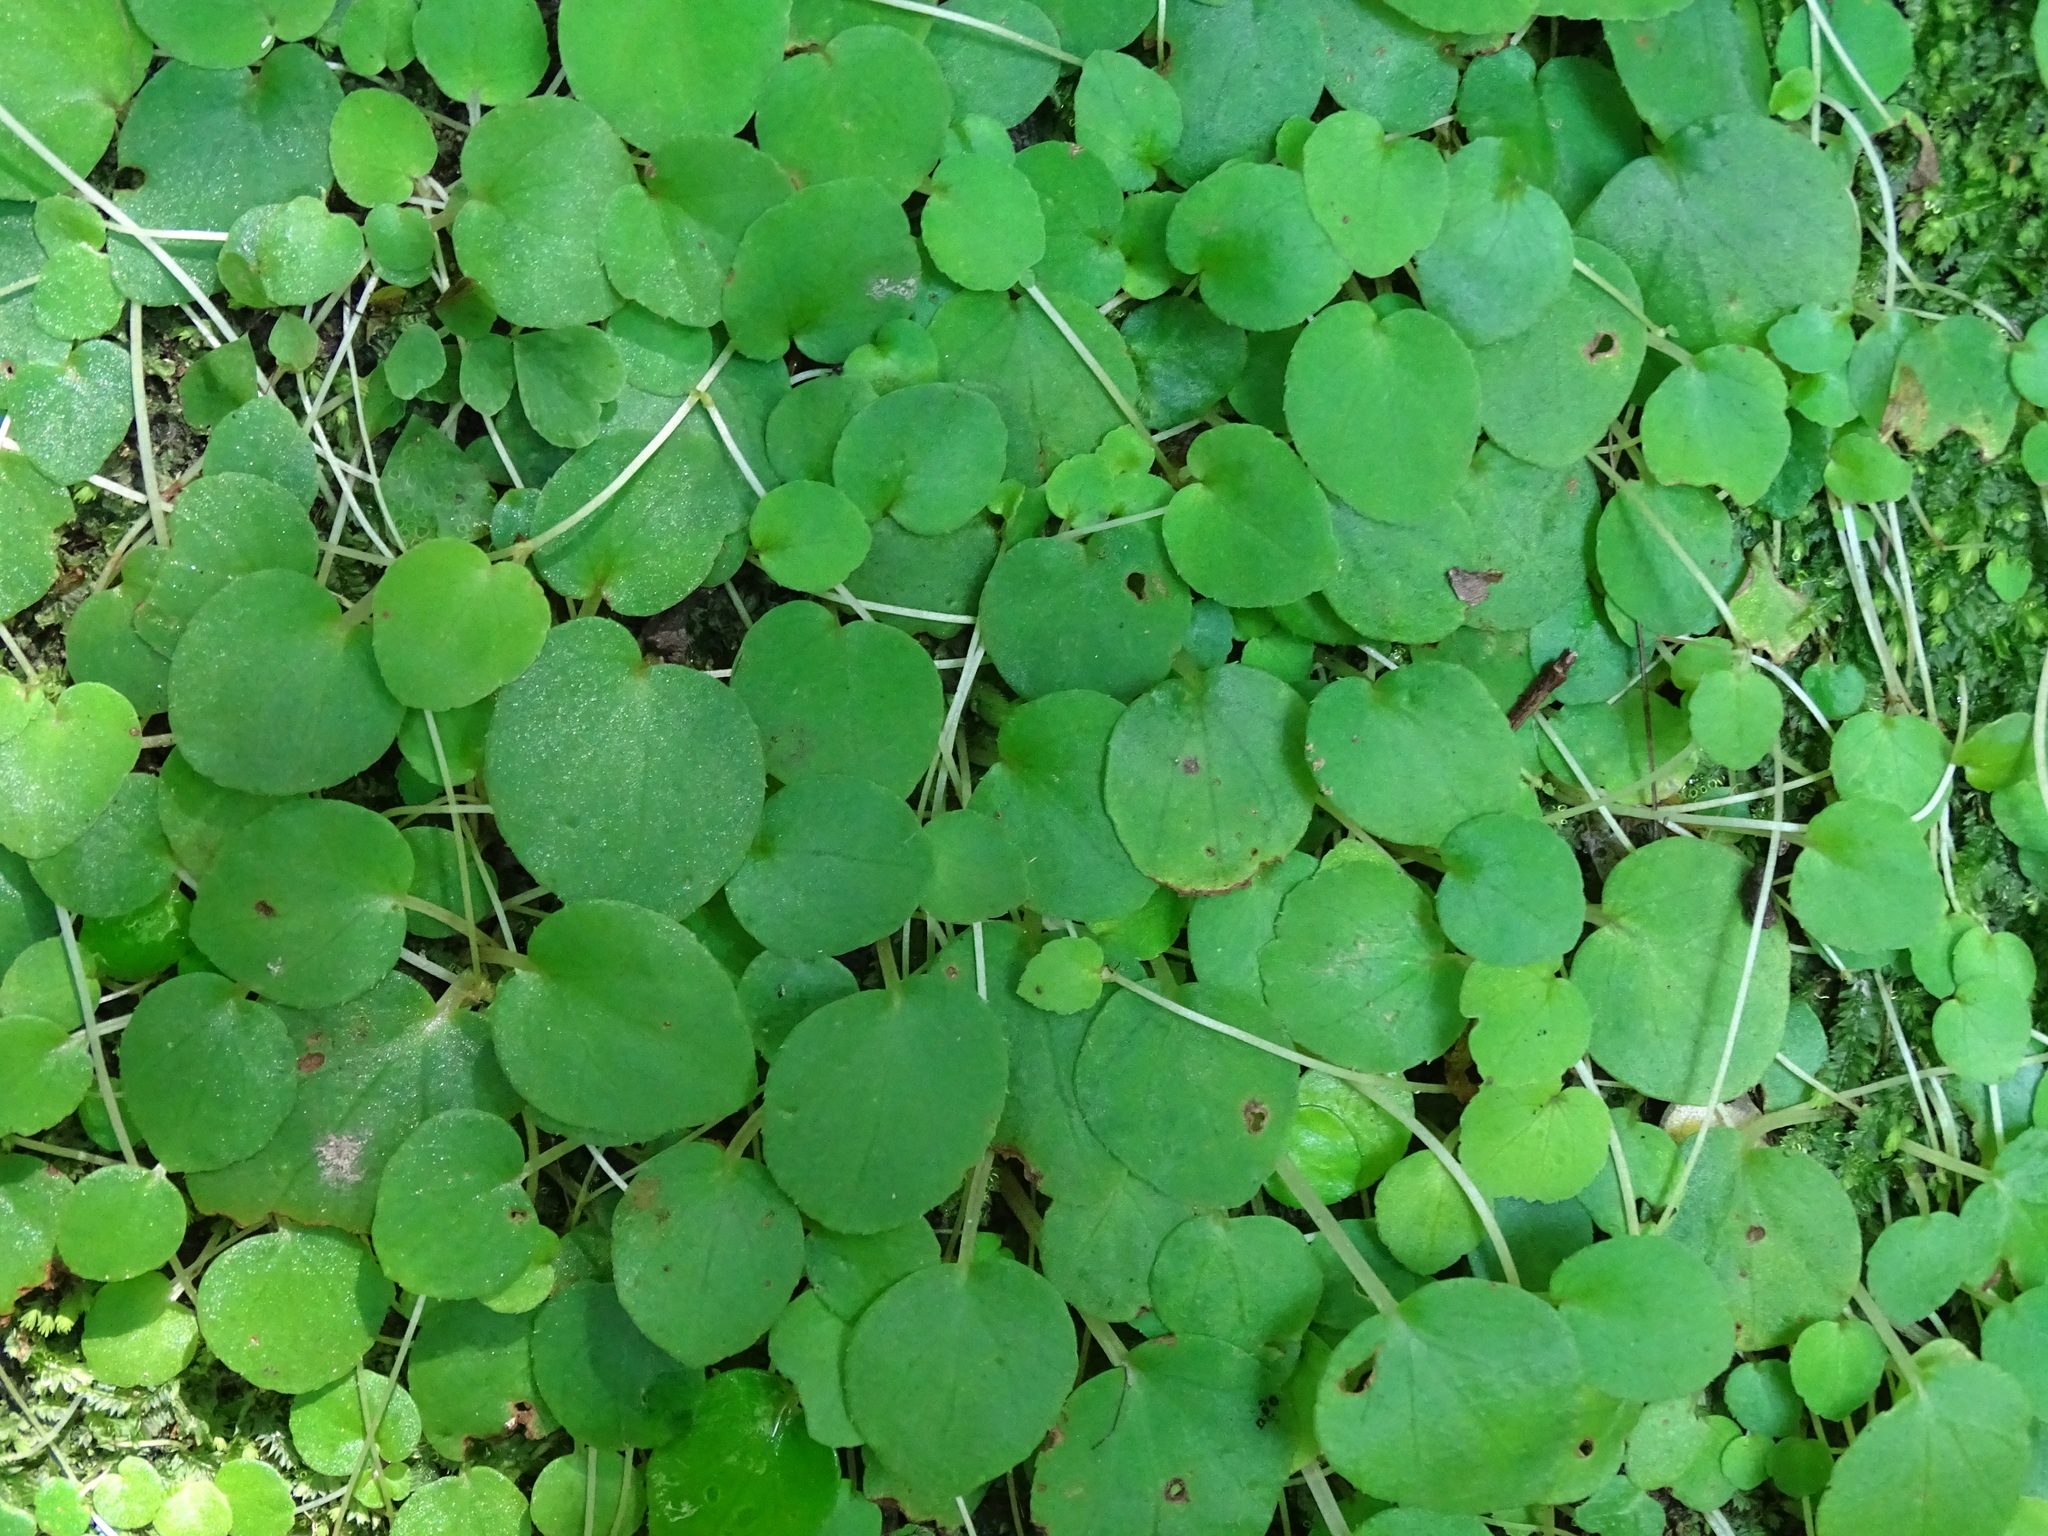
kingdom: Plantae
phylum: Tracheophyta
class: Magnoliopsida
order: Cucurbitales
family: Begoniaceae
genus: Begonia
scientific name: Begonia ravenii
